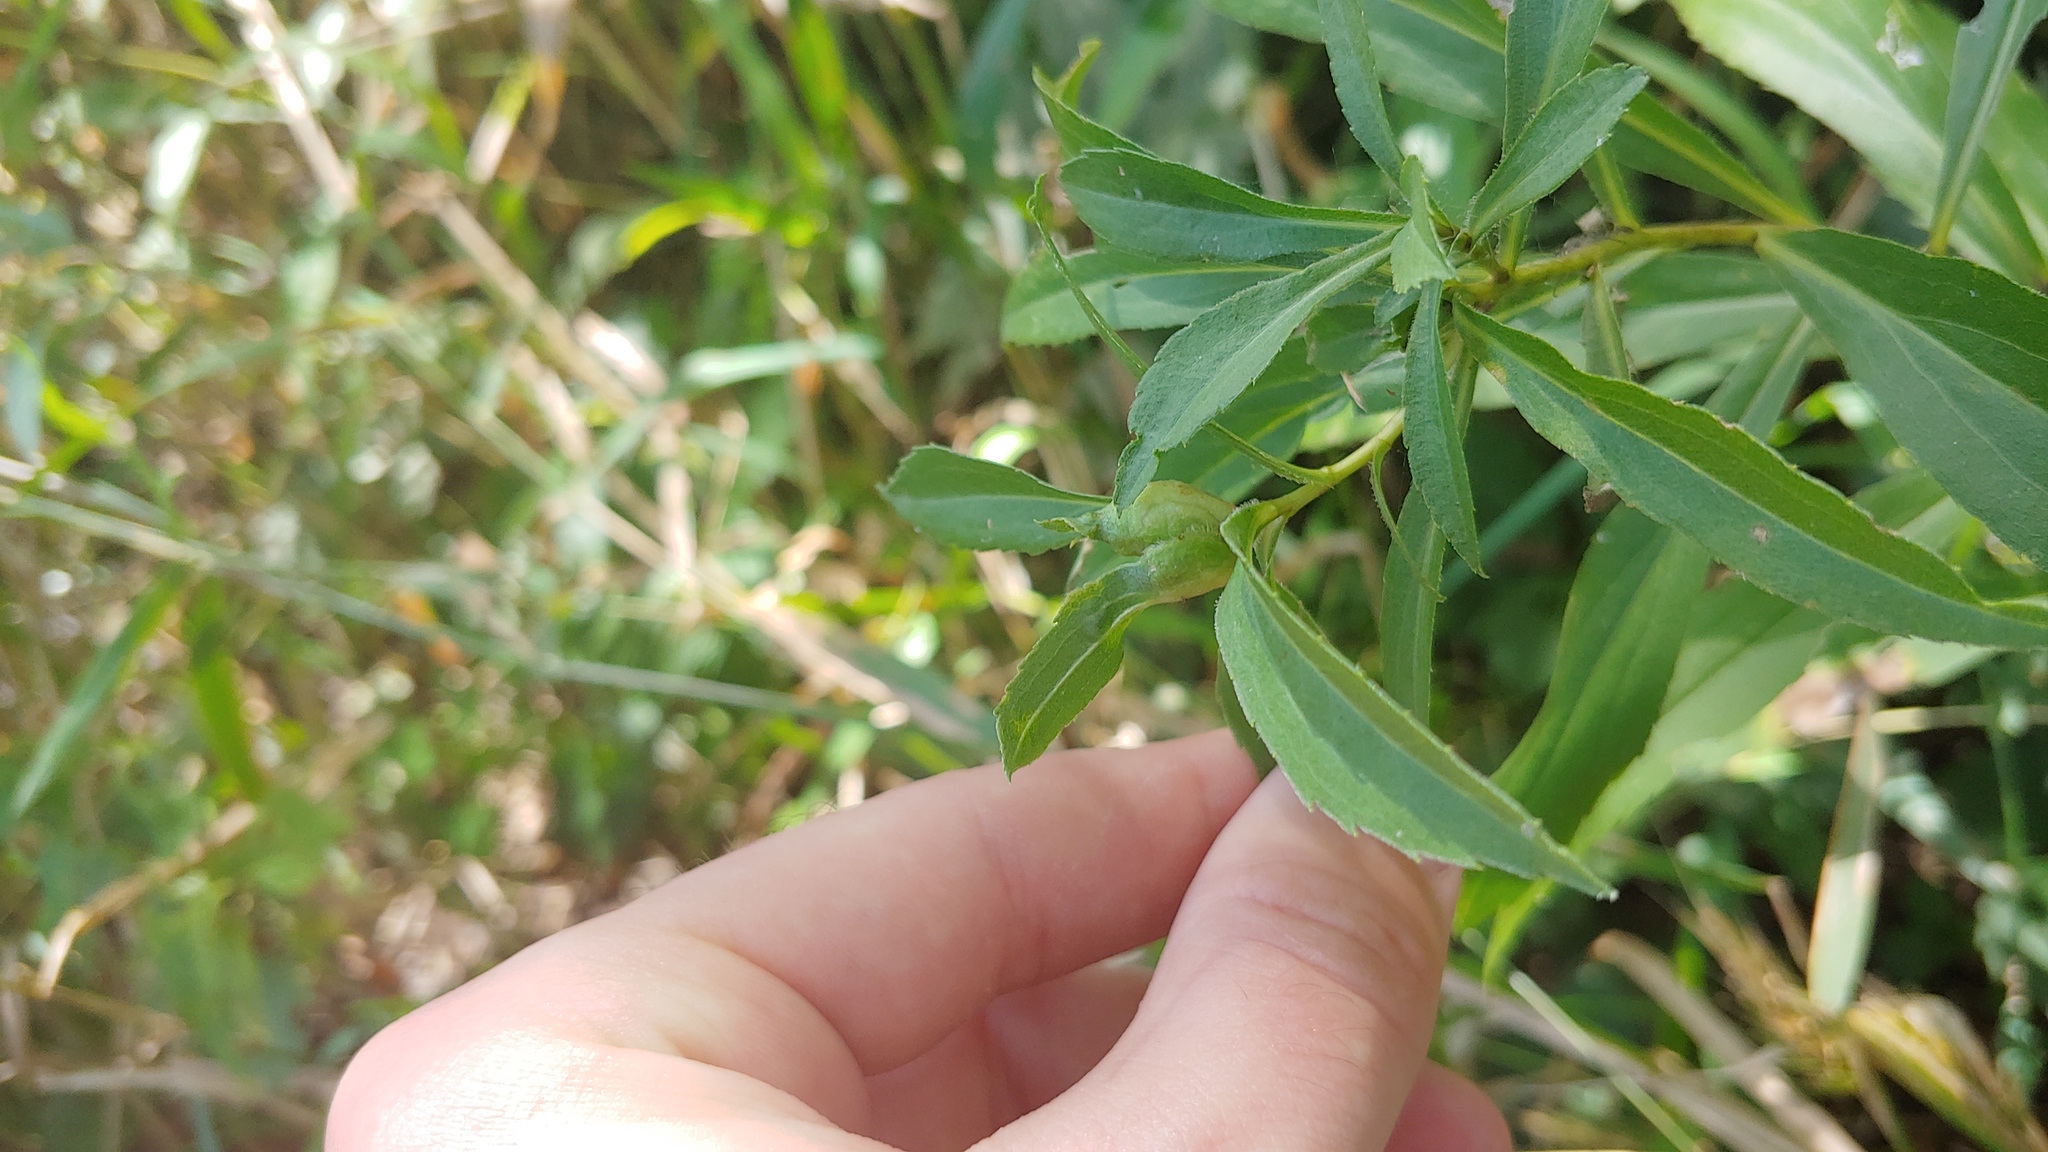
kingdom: Animalia
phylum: Arthropoda
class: Insecta
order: Diptera
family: Cecidomyiidae
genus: Dasineura
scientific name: Dasineura folliculi
